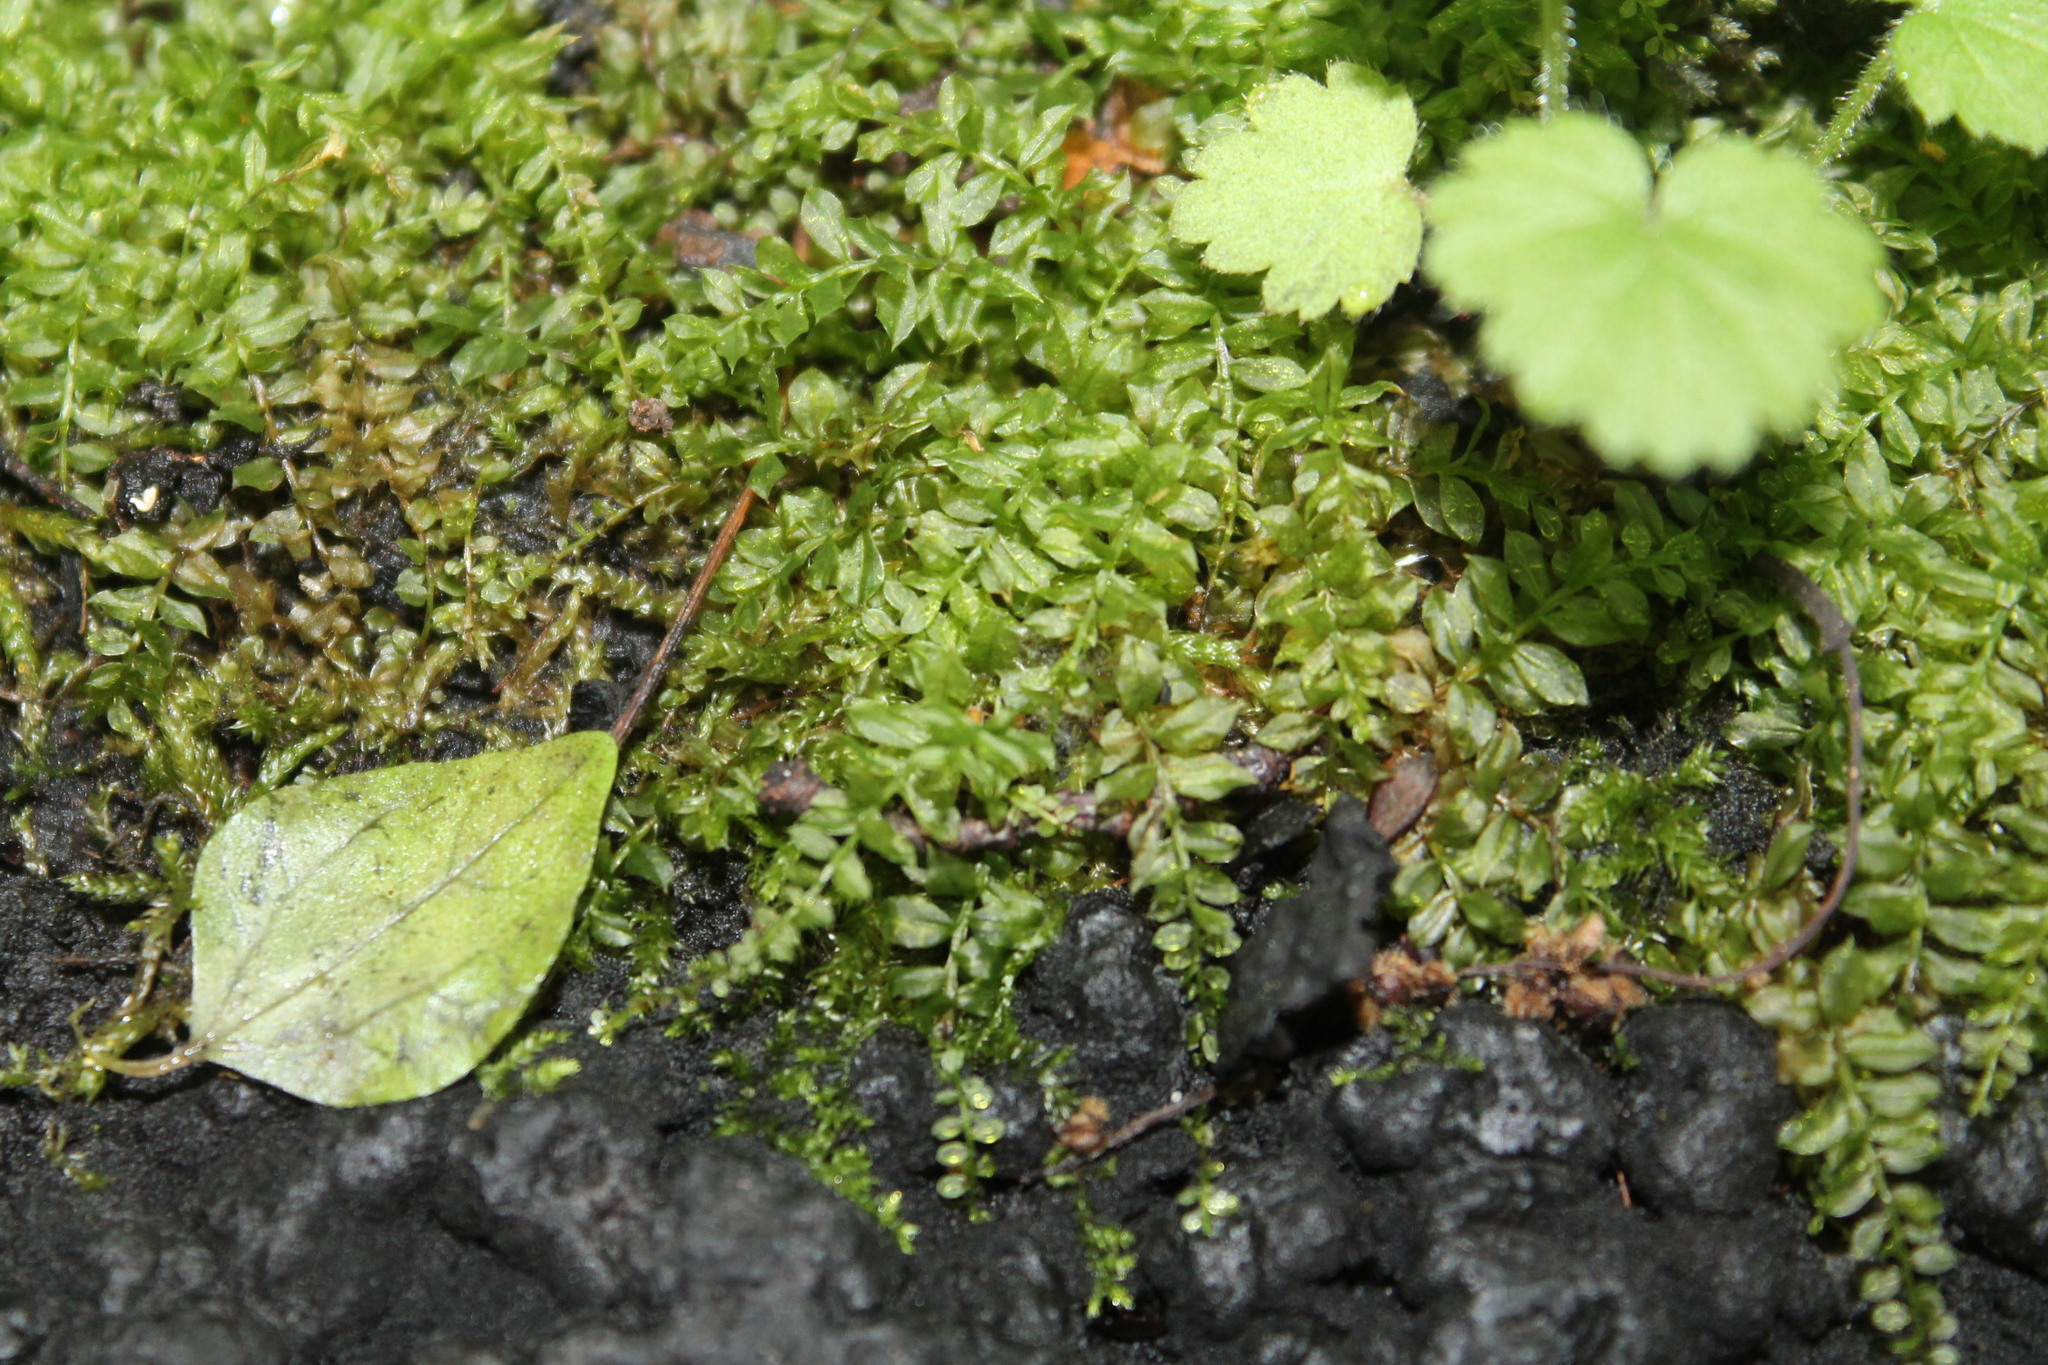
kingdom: Plantae
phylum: Bryophyta
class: Bryopsida
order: Bryales
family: Mniaceae
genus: Plagiomnium
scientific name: Plagiomnium cuspidatum
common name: Woodsy leafy moss
